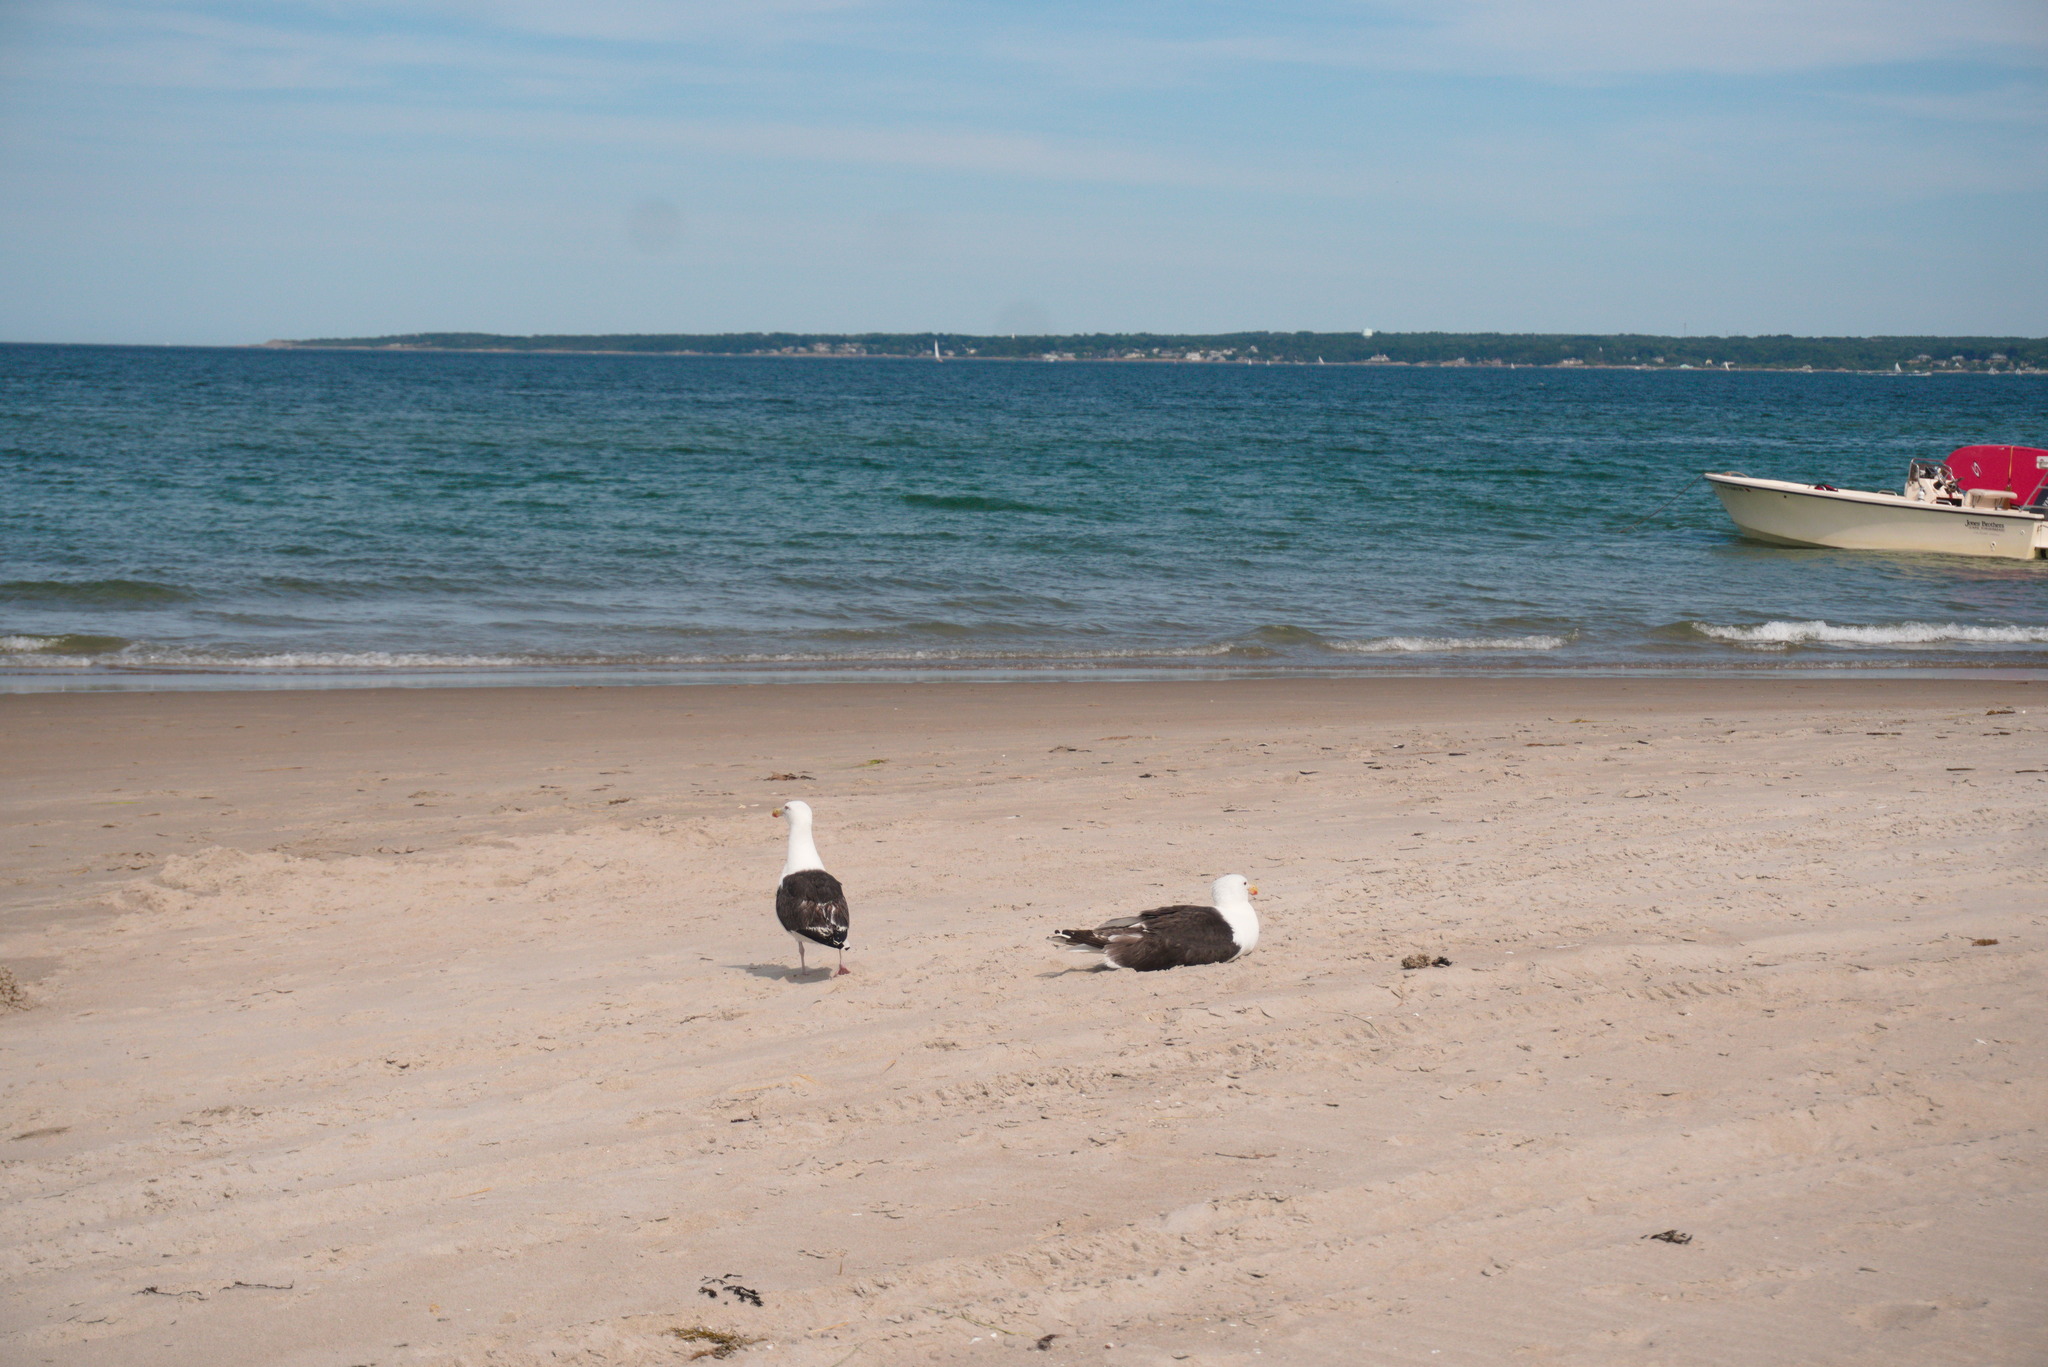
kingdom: Animalia
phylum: Chordata
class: Aves
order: Charadriiformes
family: Laridae
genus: Larus
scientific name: Larus marinus
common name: Great black-backed gull
